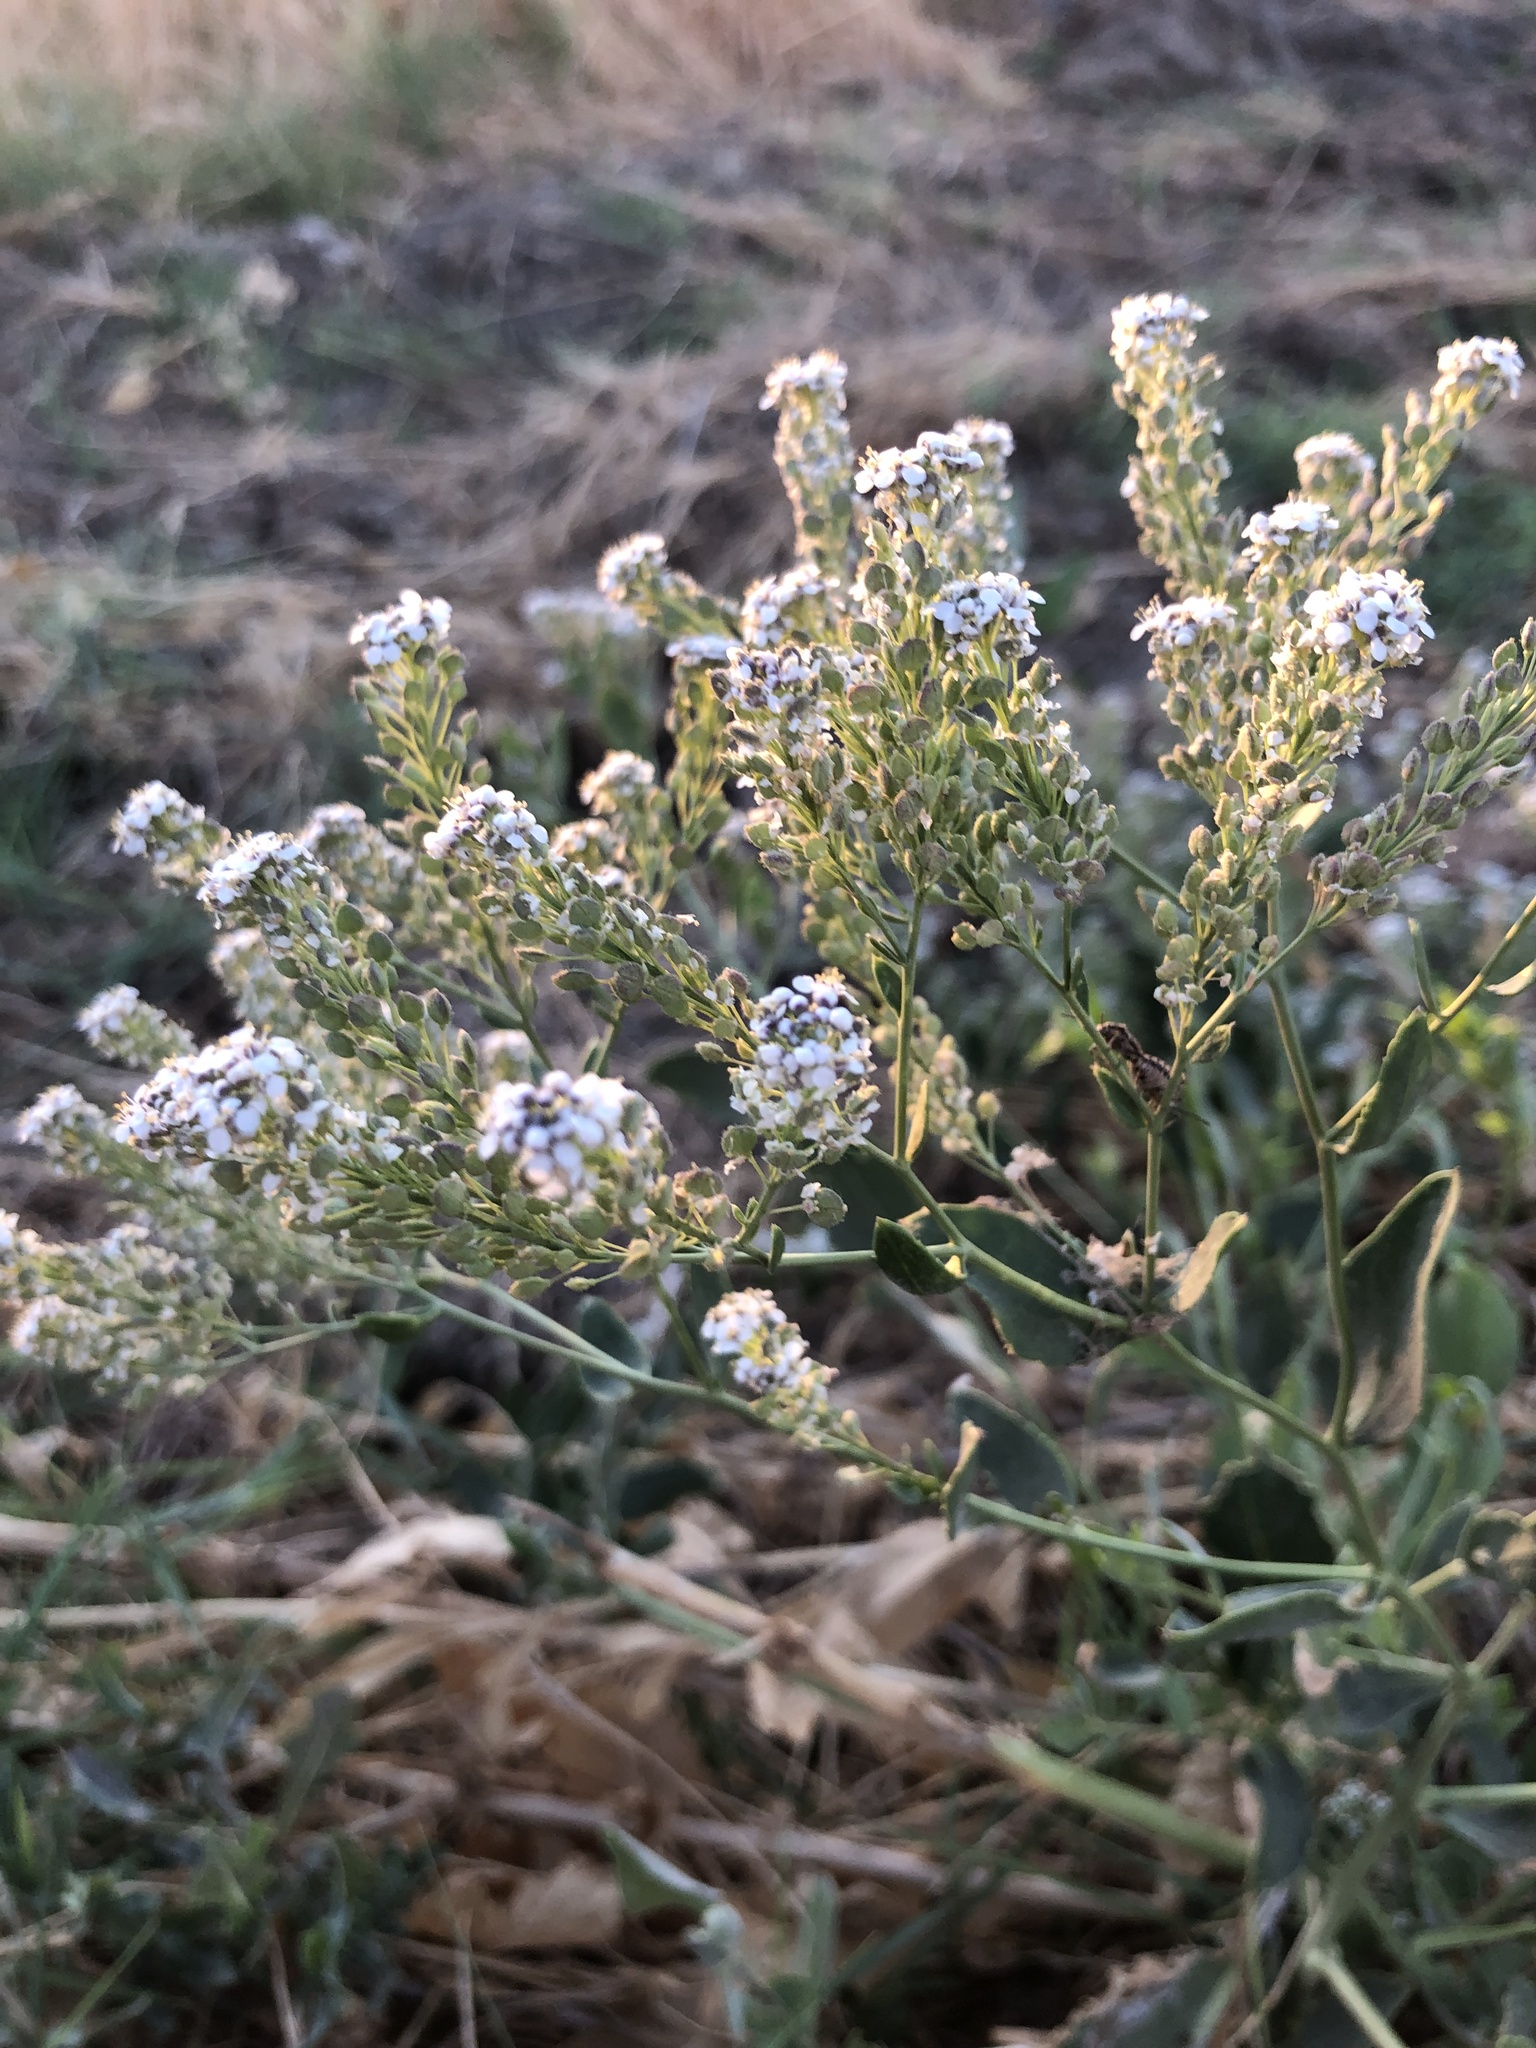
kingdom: Plantae
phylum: Tracheophyta
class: Magnoliopsida
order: Brassicales
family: Brassicaceae
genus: Lepidium
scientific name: Lepidium latifolium
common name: Dittander
